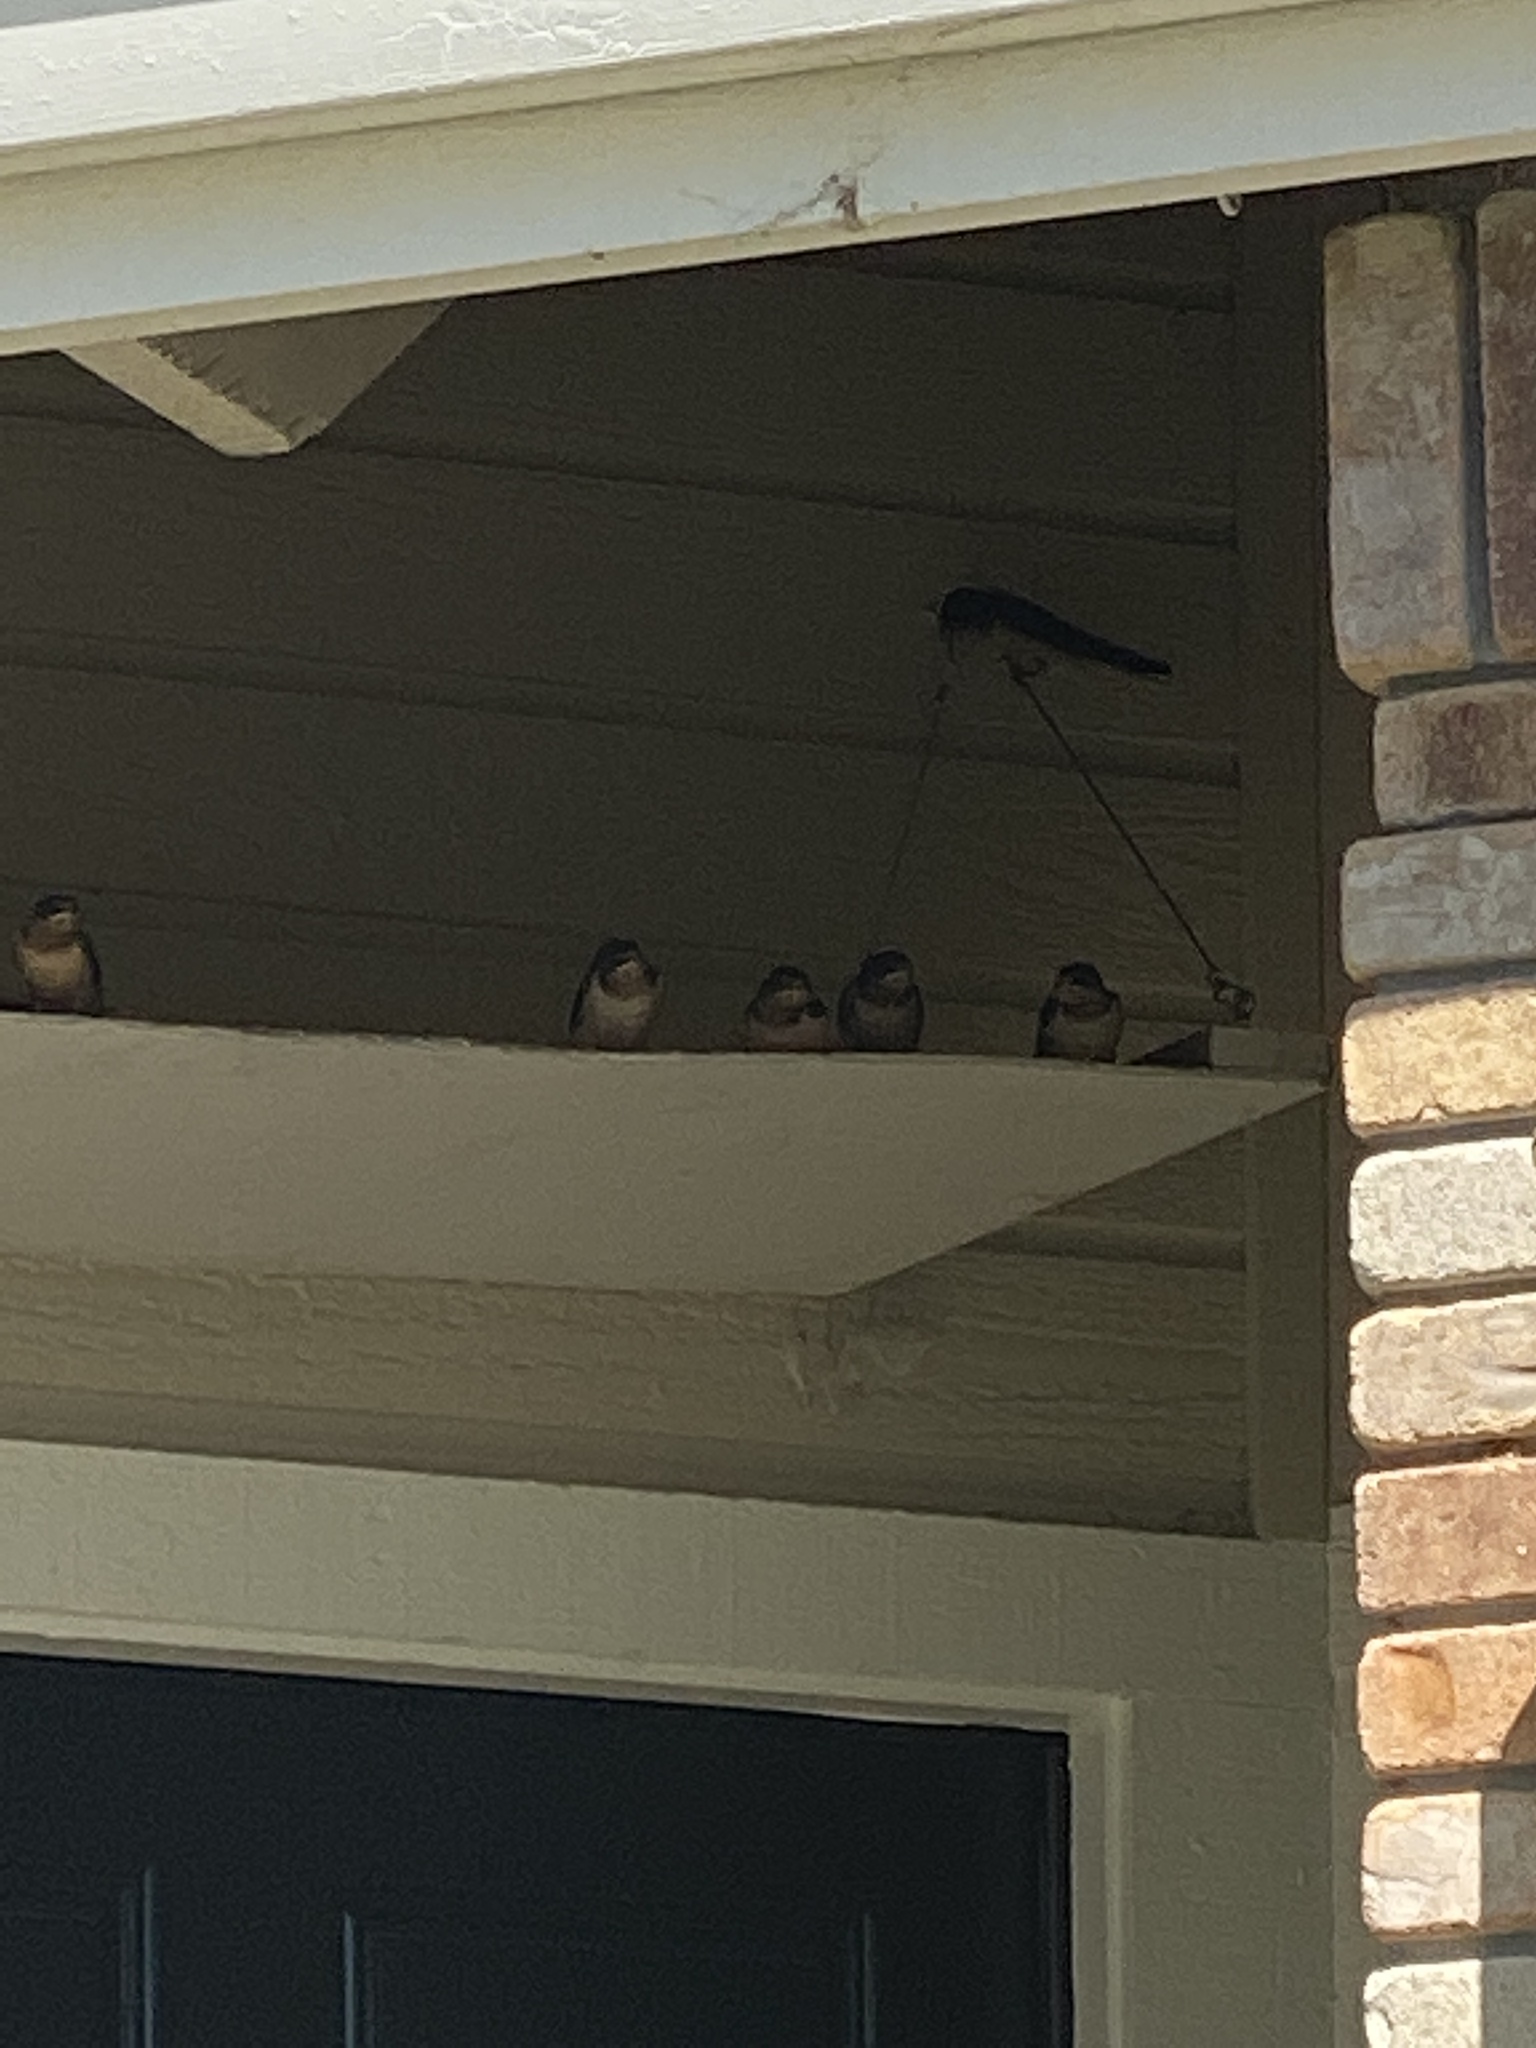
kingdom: Animalia
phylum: Chordata
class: Aves
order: Passeriformes
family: Hirundinidae
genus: Hirundo
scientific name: Hirundo rustica
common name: Barn swallow
